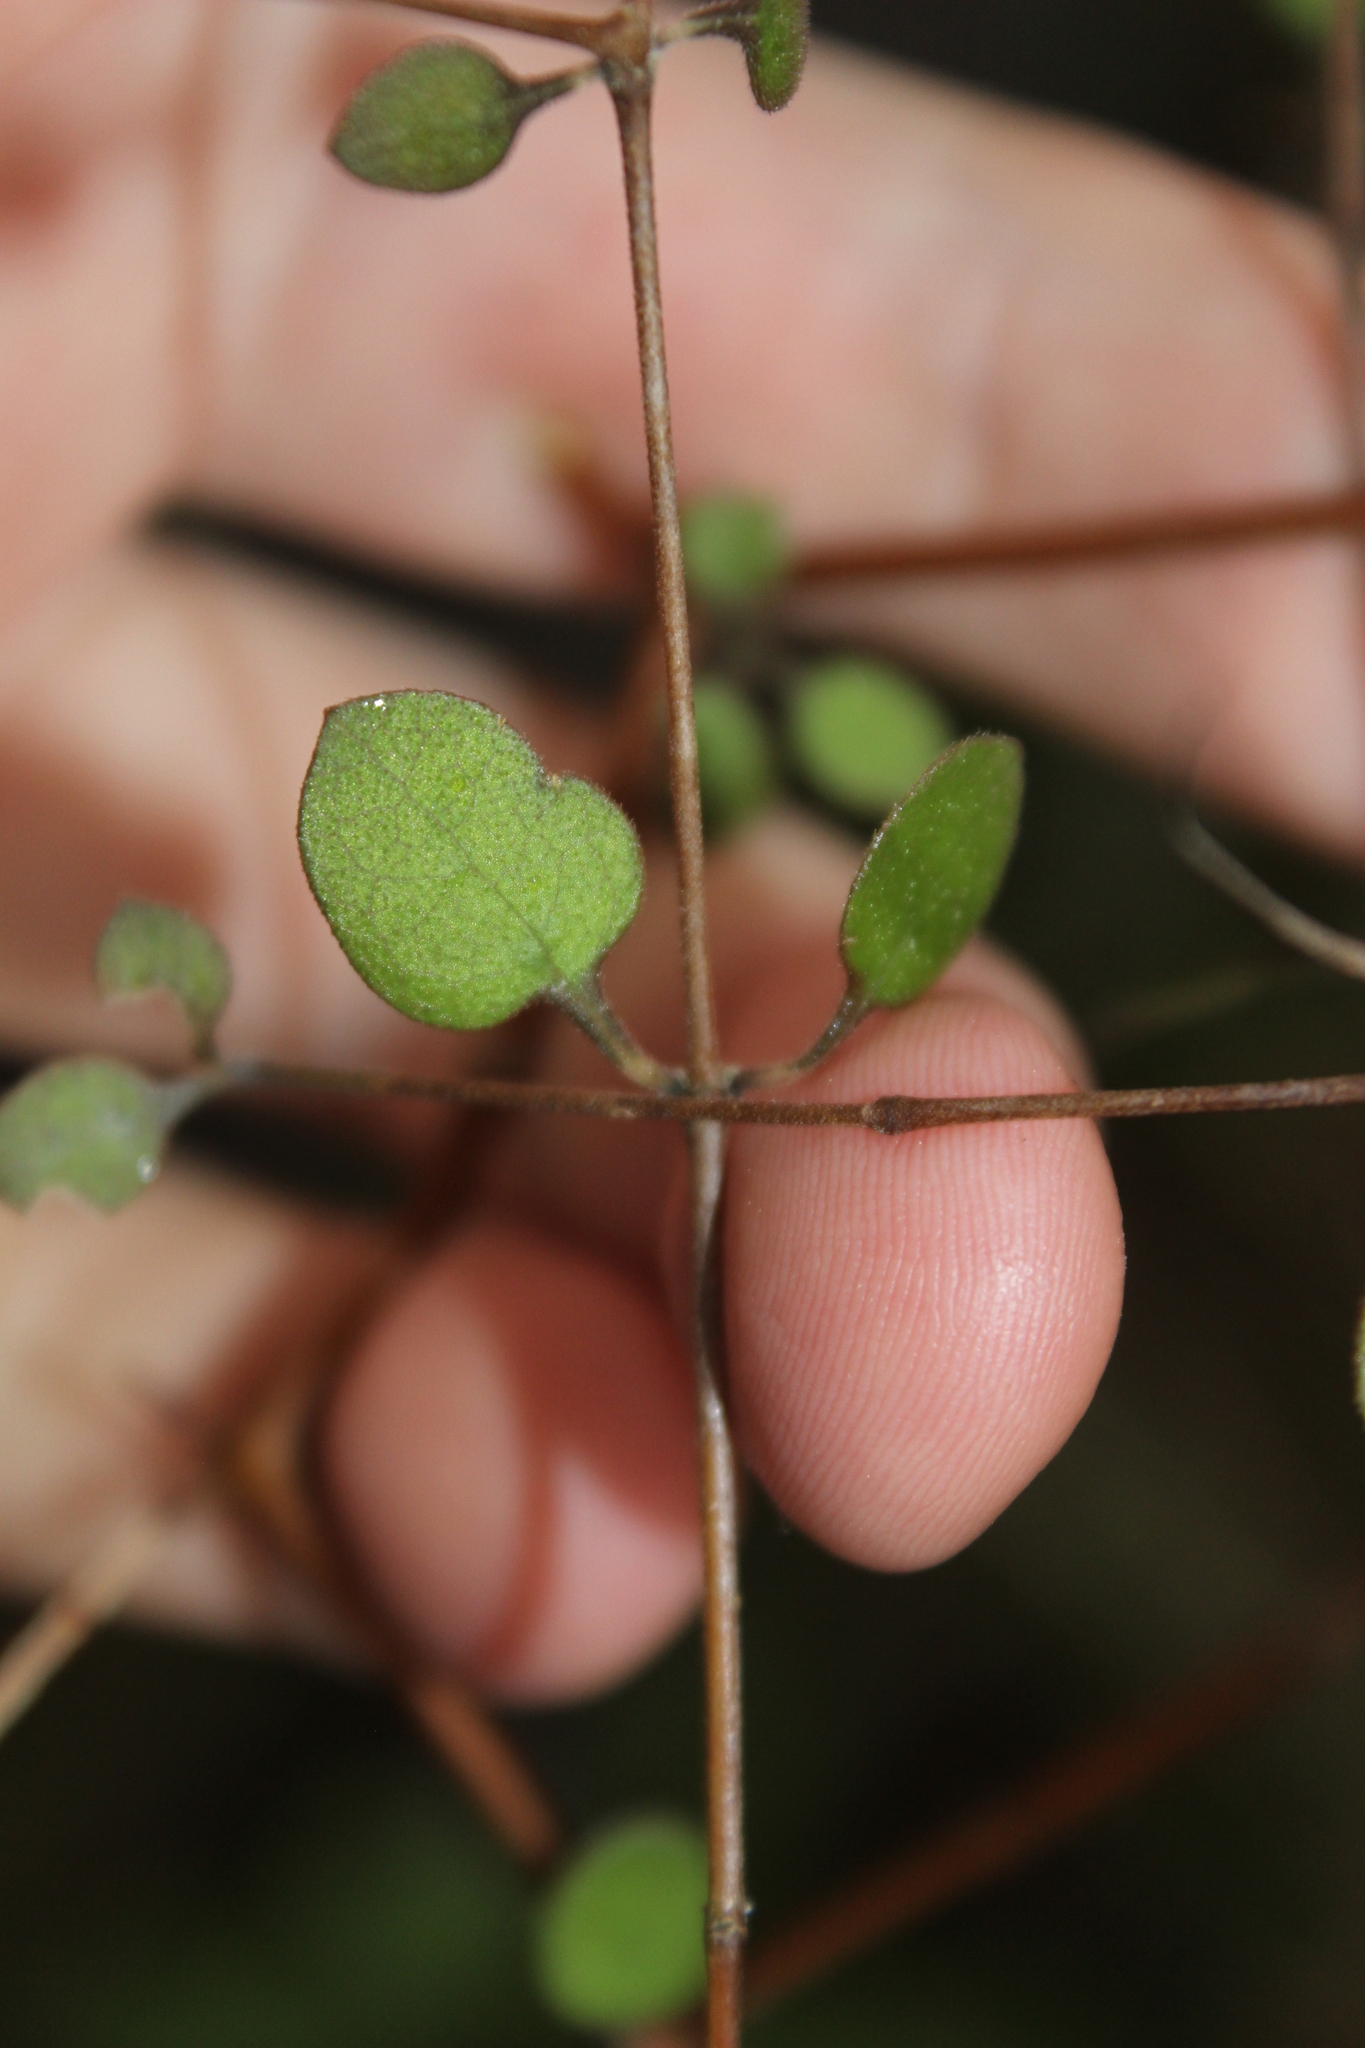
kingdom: Plantae
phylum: Tracheophyta
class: Magnoliopsida
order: Gentianales
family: Rubiaceae
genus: Coprosma
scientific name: Coprosma crassifolia
